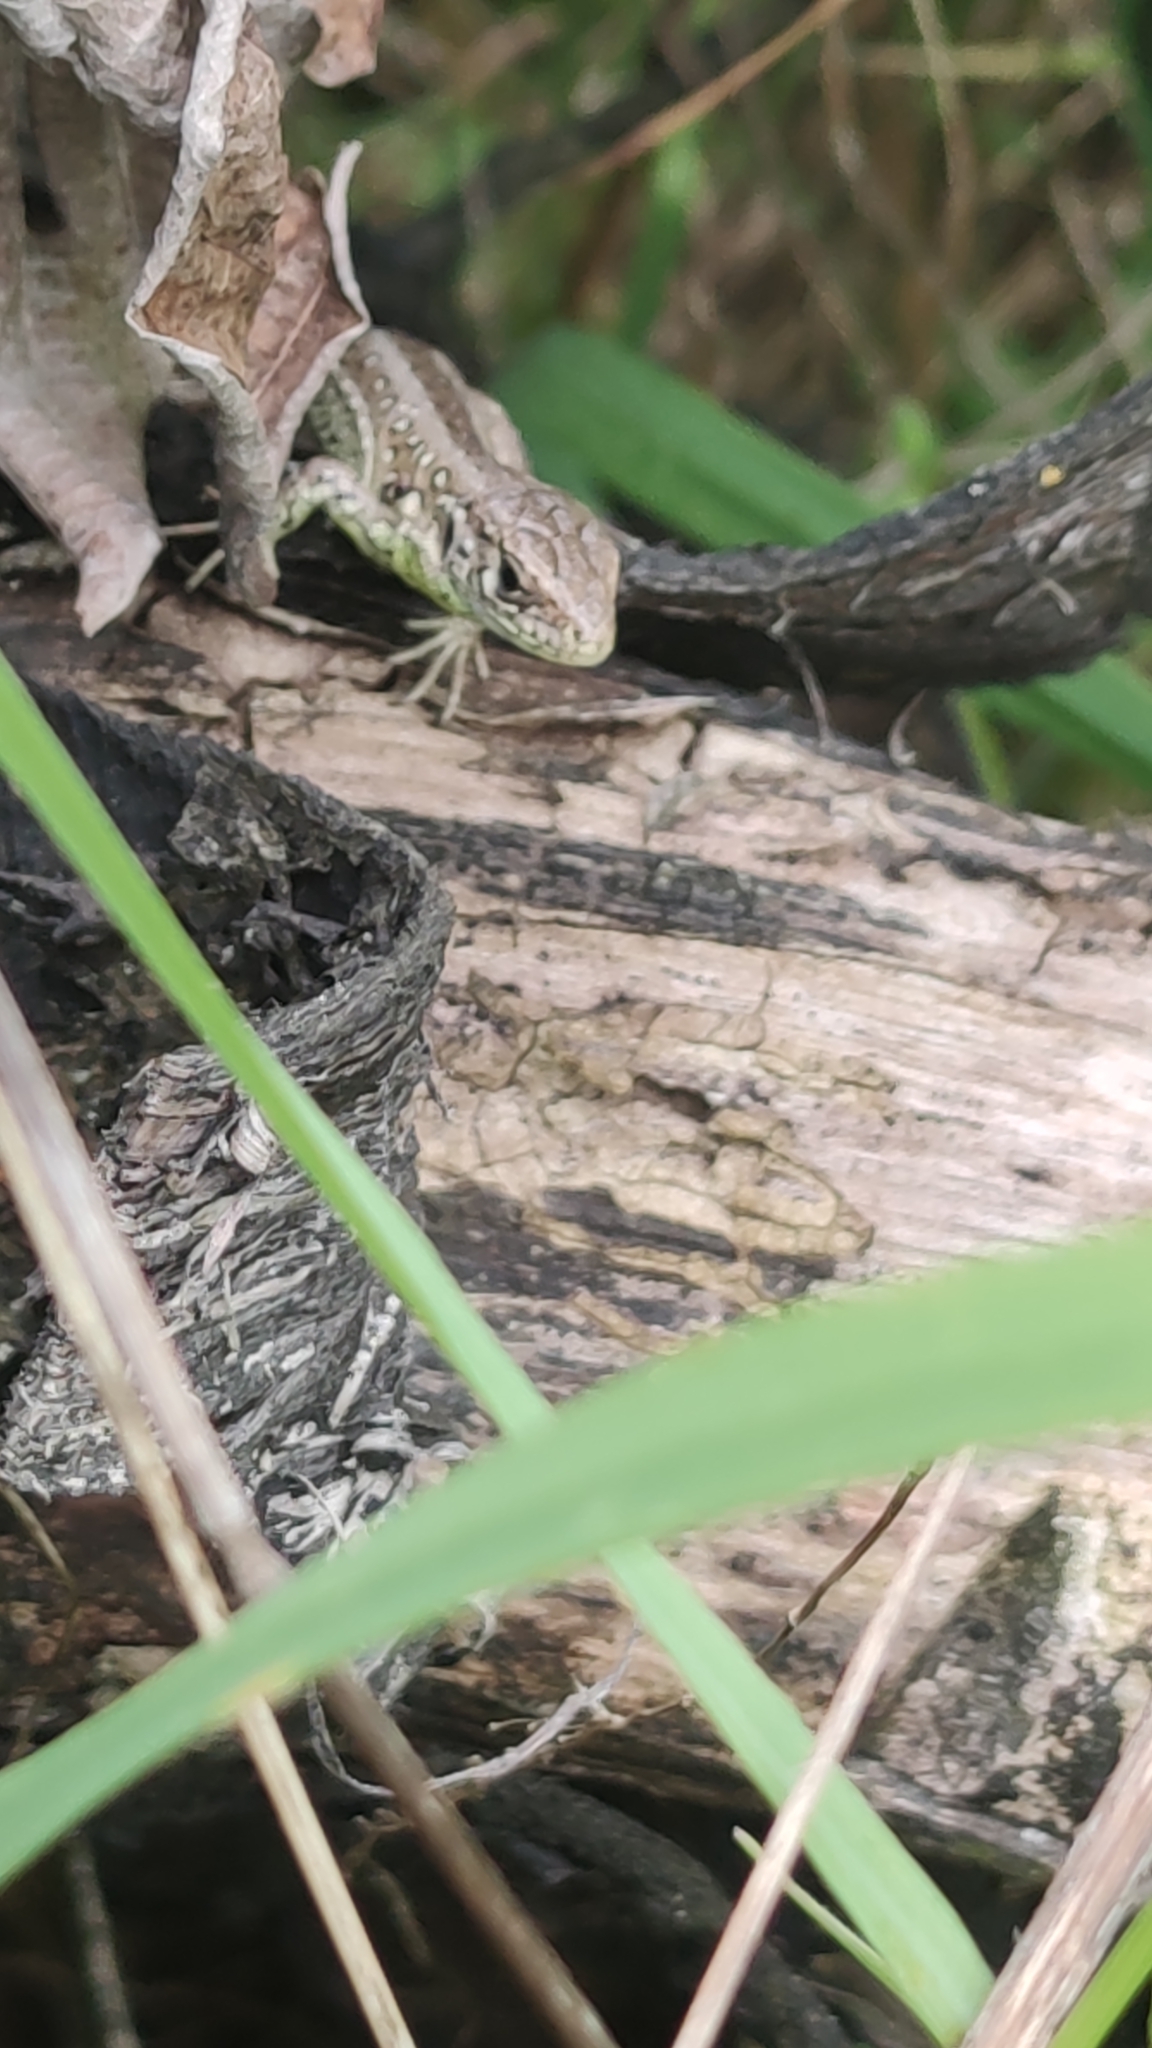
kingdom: Animalia
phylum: Chordata
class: Squamata
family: Lacertidae
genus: Lacerta
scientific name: Lacerta agilis
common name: Sand lizard
